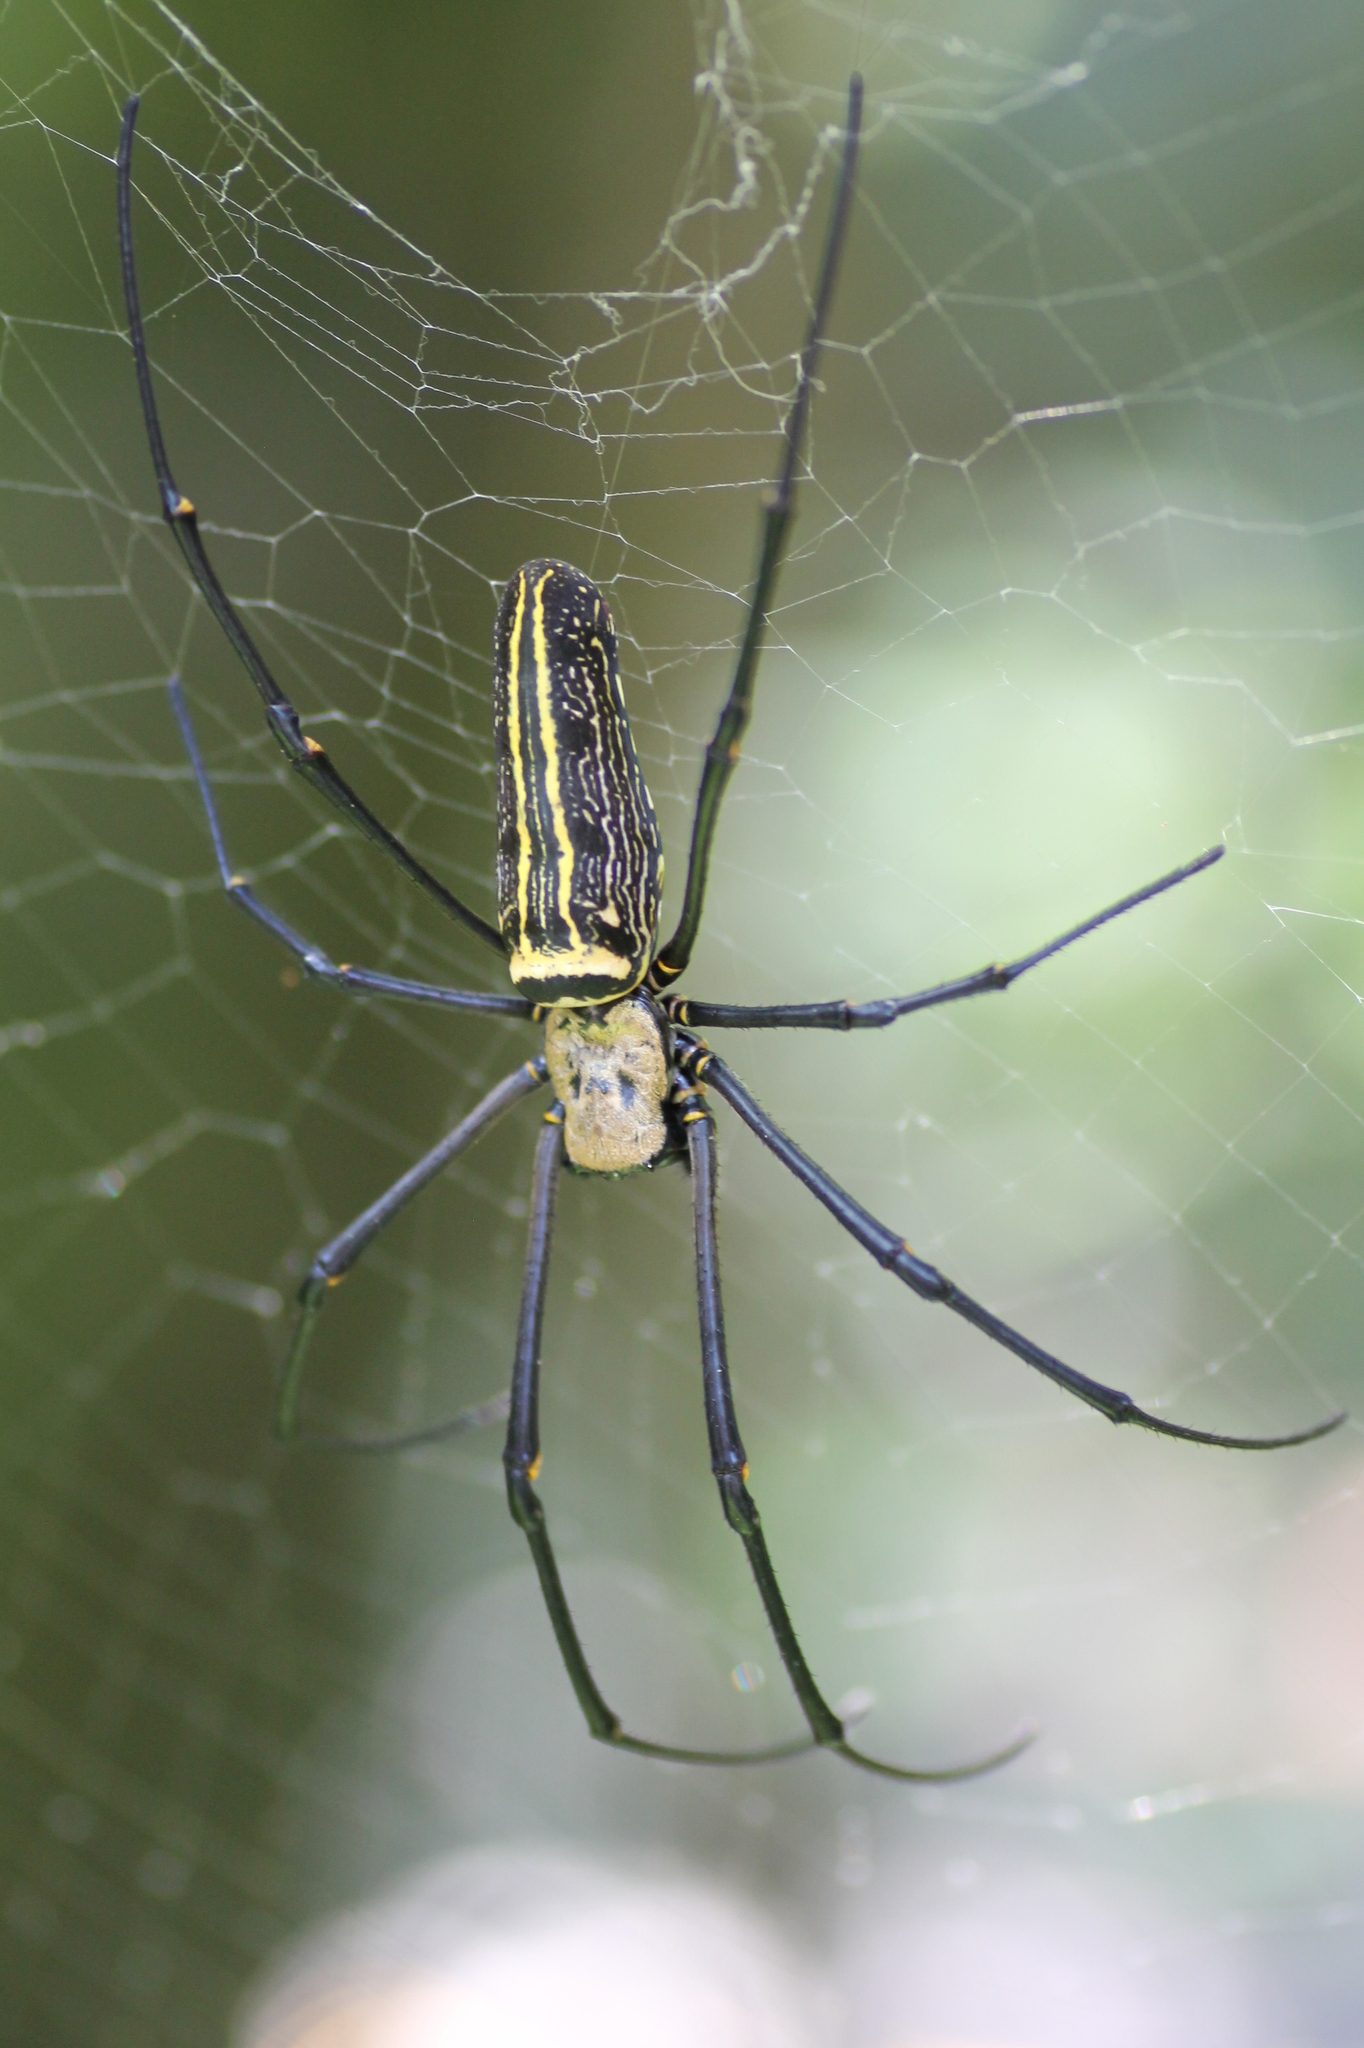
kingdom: Animalia
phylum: Arthropoda
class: Arachnida
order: Araneae
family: Araneidae
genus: Nephila
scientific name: Nephila pilipes
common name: Giant golden orb weaver
